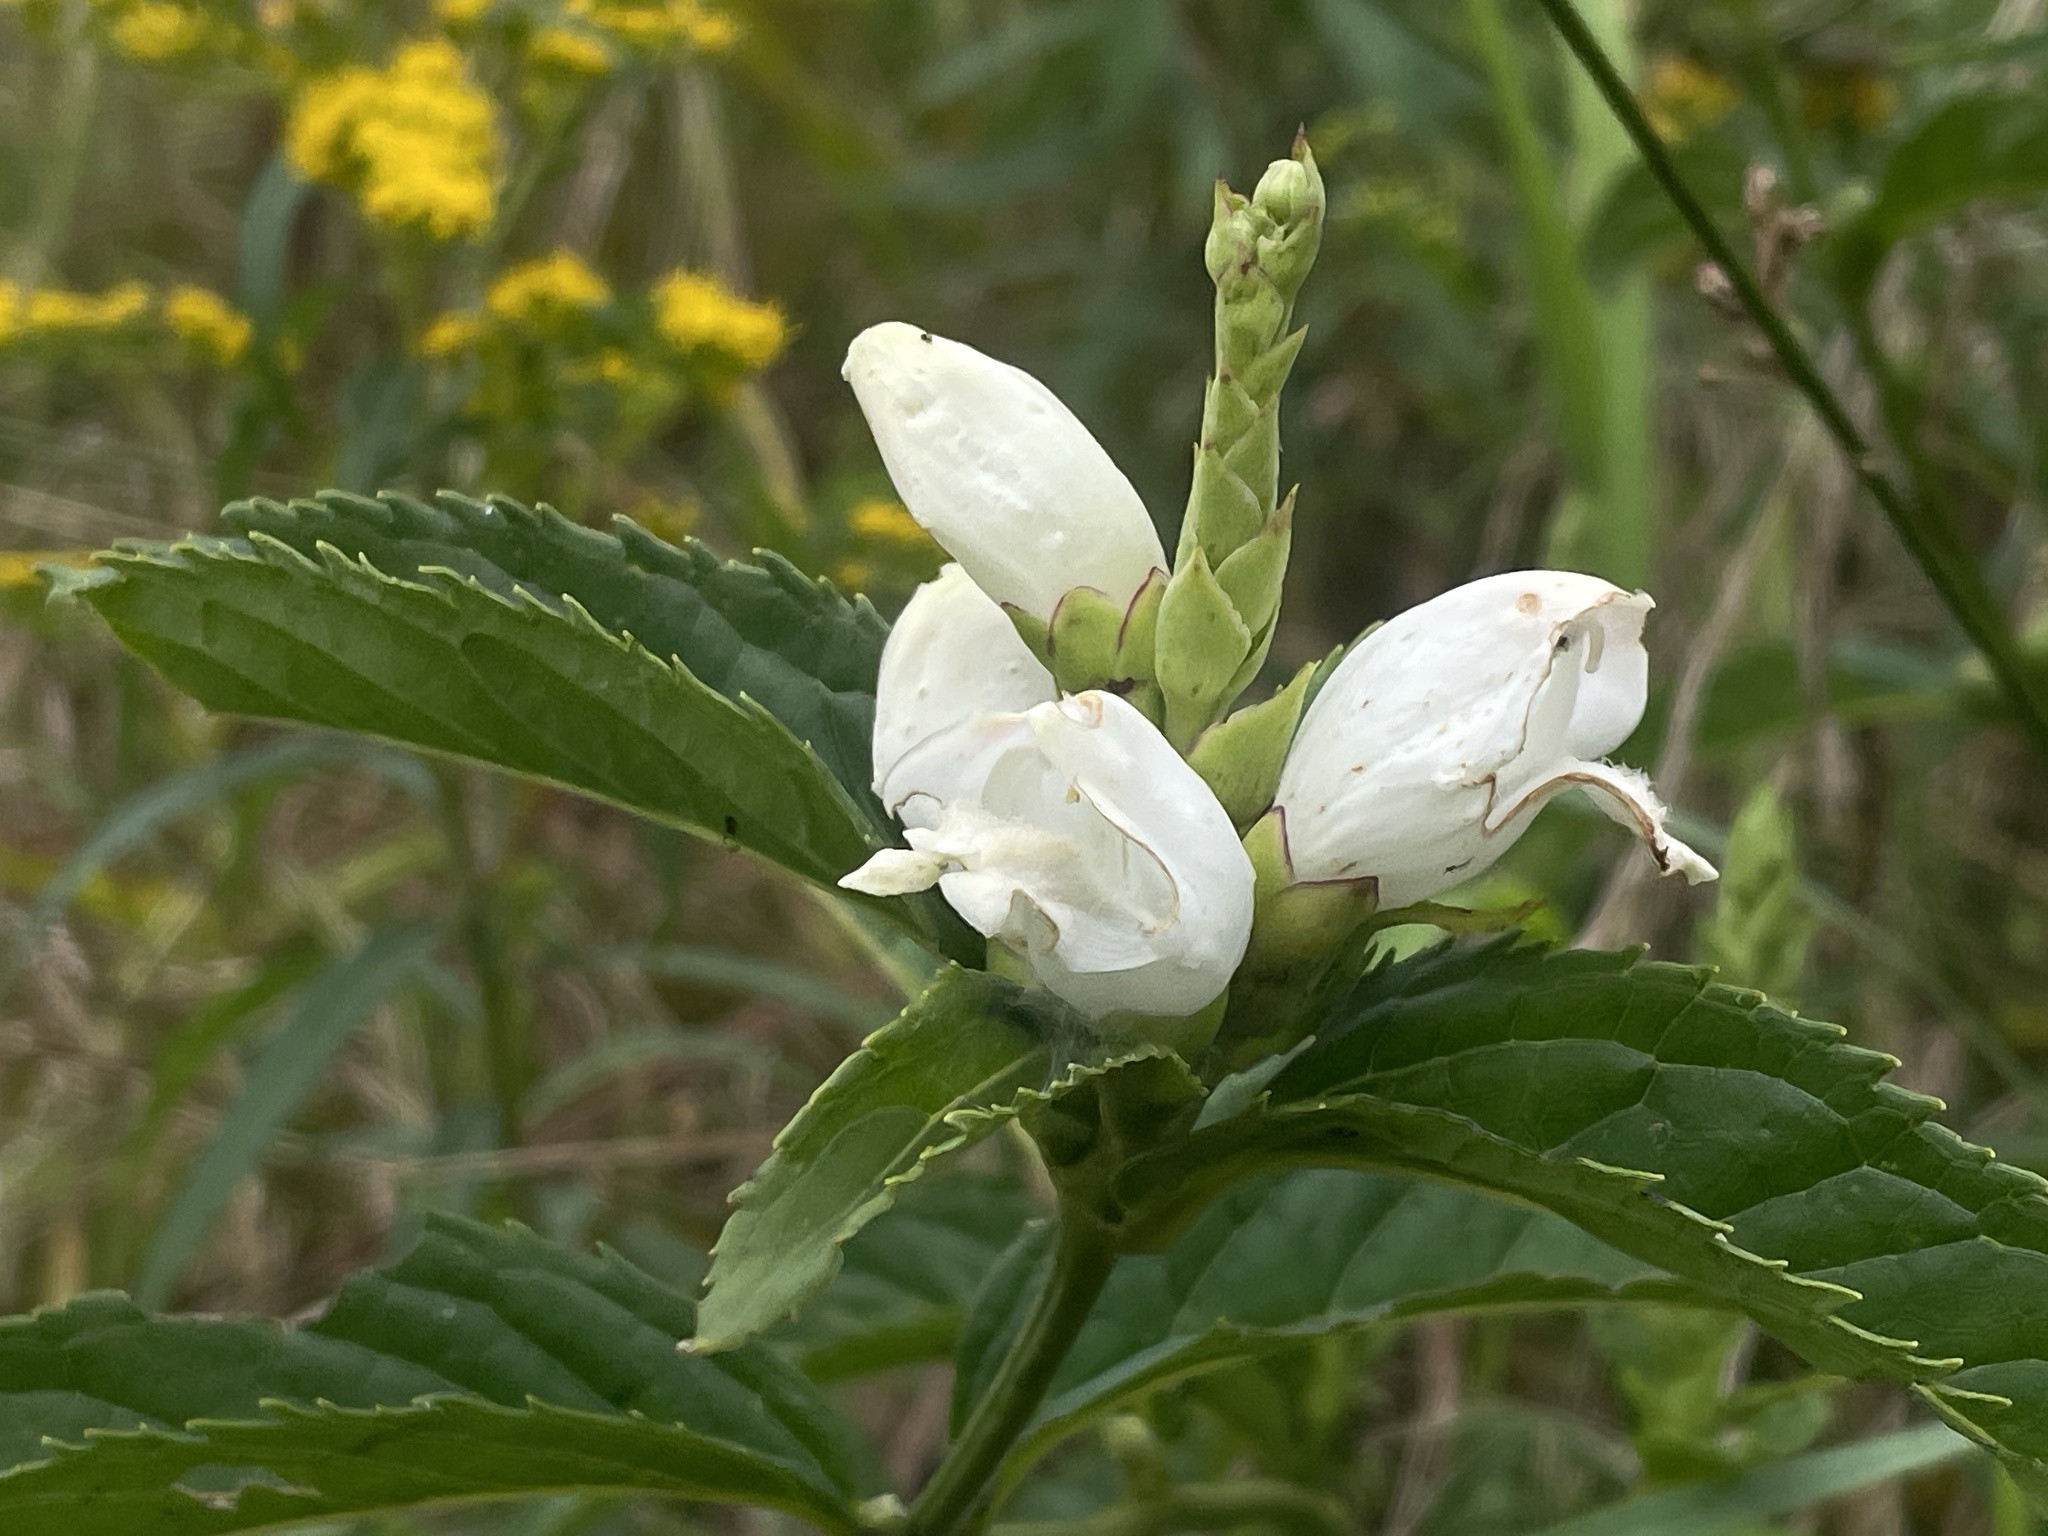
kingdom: Plantae
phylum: Tracheophyta
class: Magnoliopsida
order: Lamiales
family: Plantaginaceae
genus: Chelone
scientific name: Chelone glabra
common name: Snakehead
